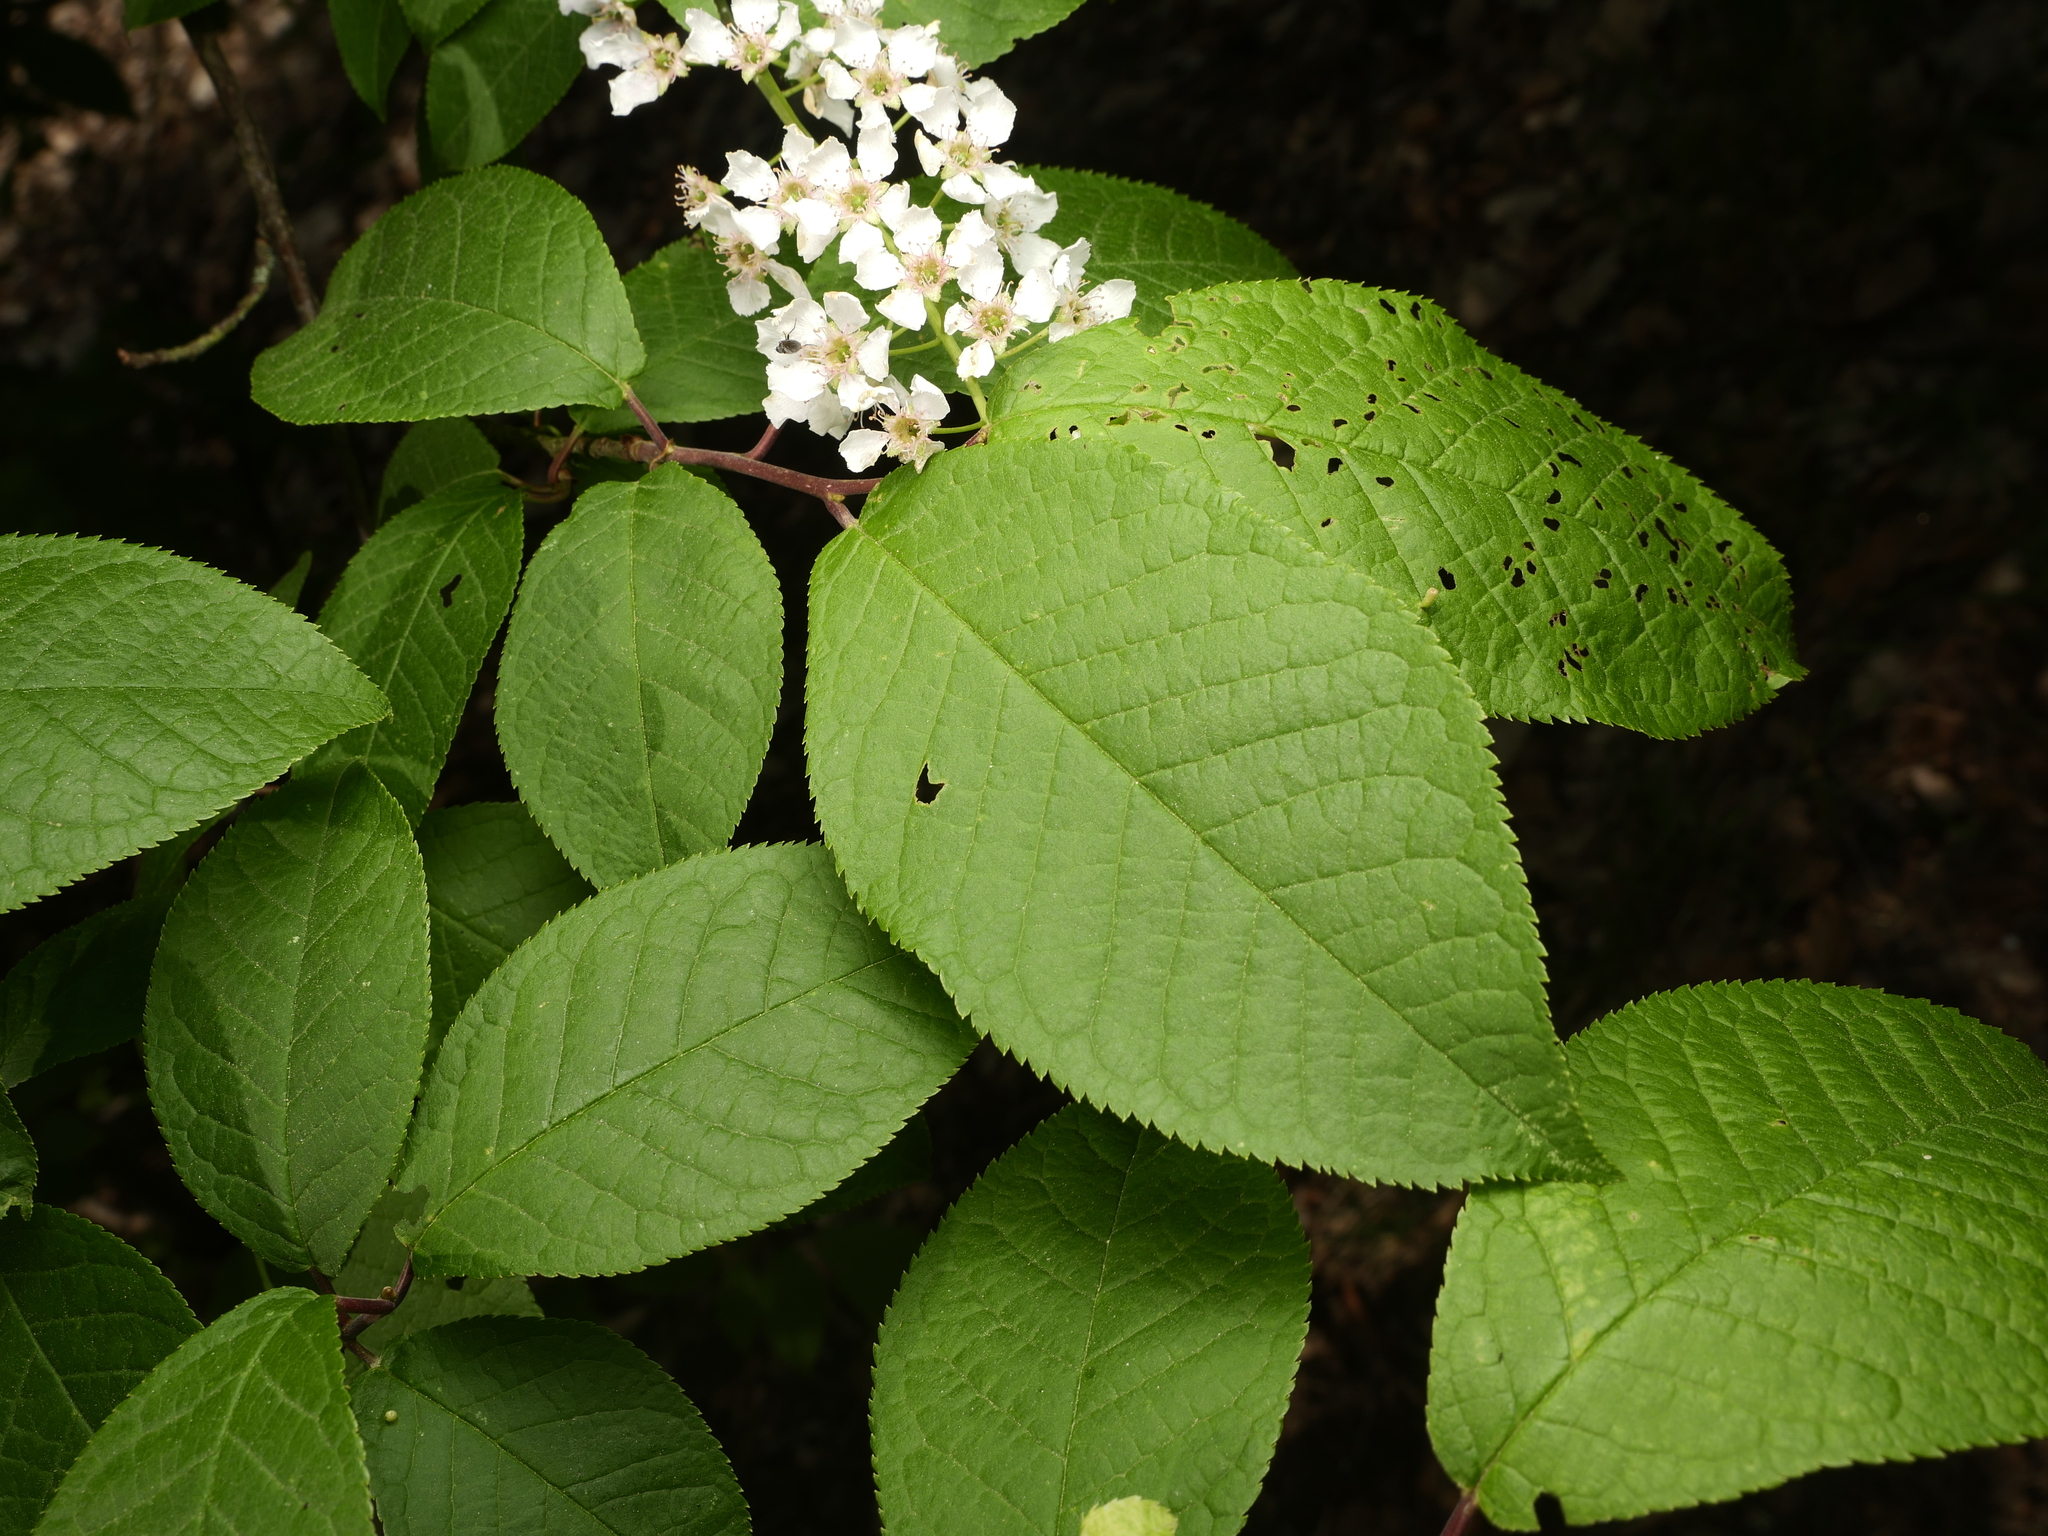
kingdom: Plantae
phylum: Tracheophyta
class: Magnoliopsida
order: Rosales
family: Rosaceae
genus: Prunus
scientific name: Prunus padus
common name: Bird cherry
